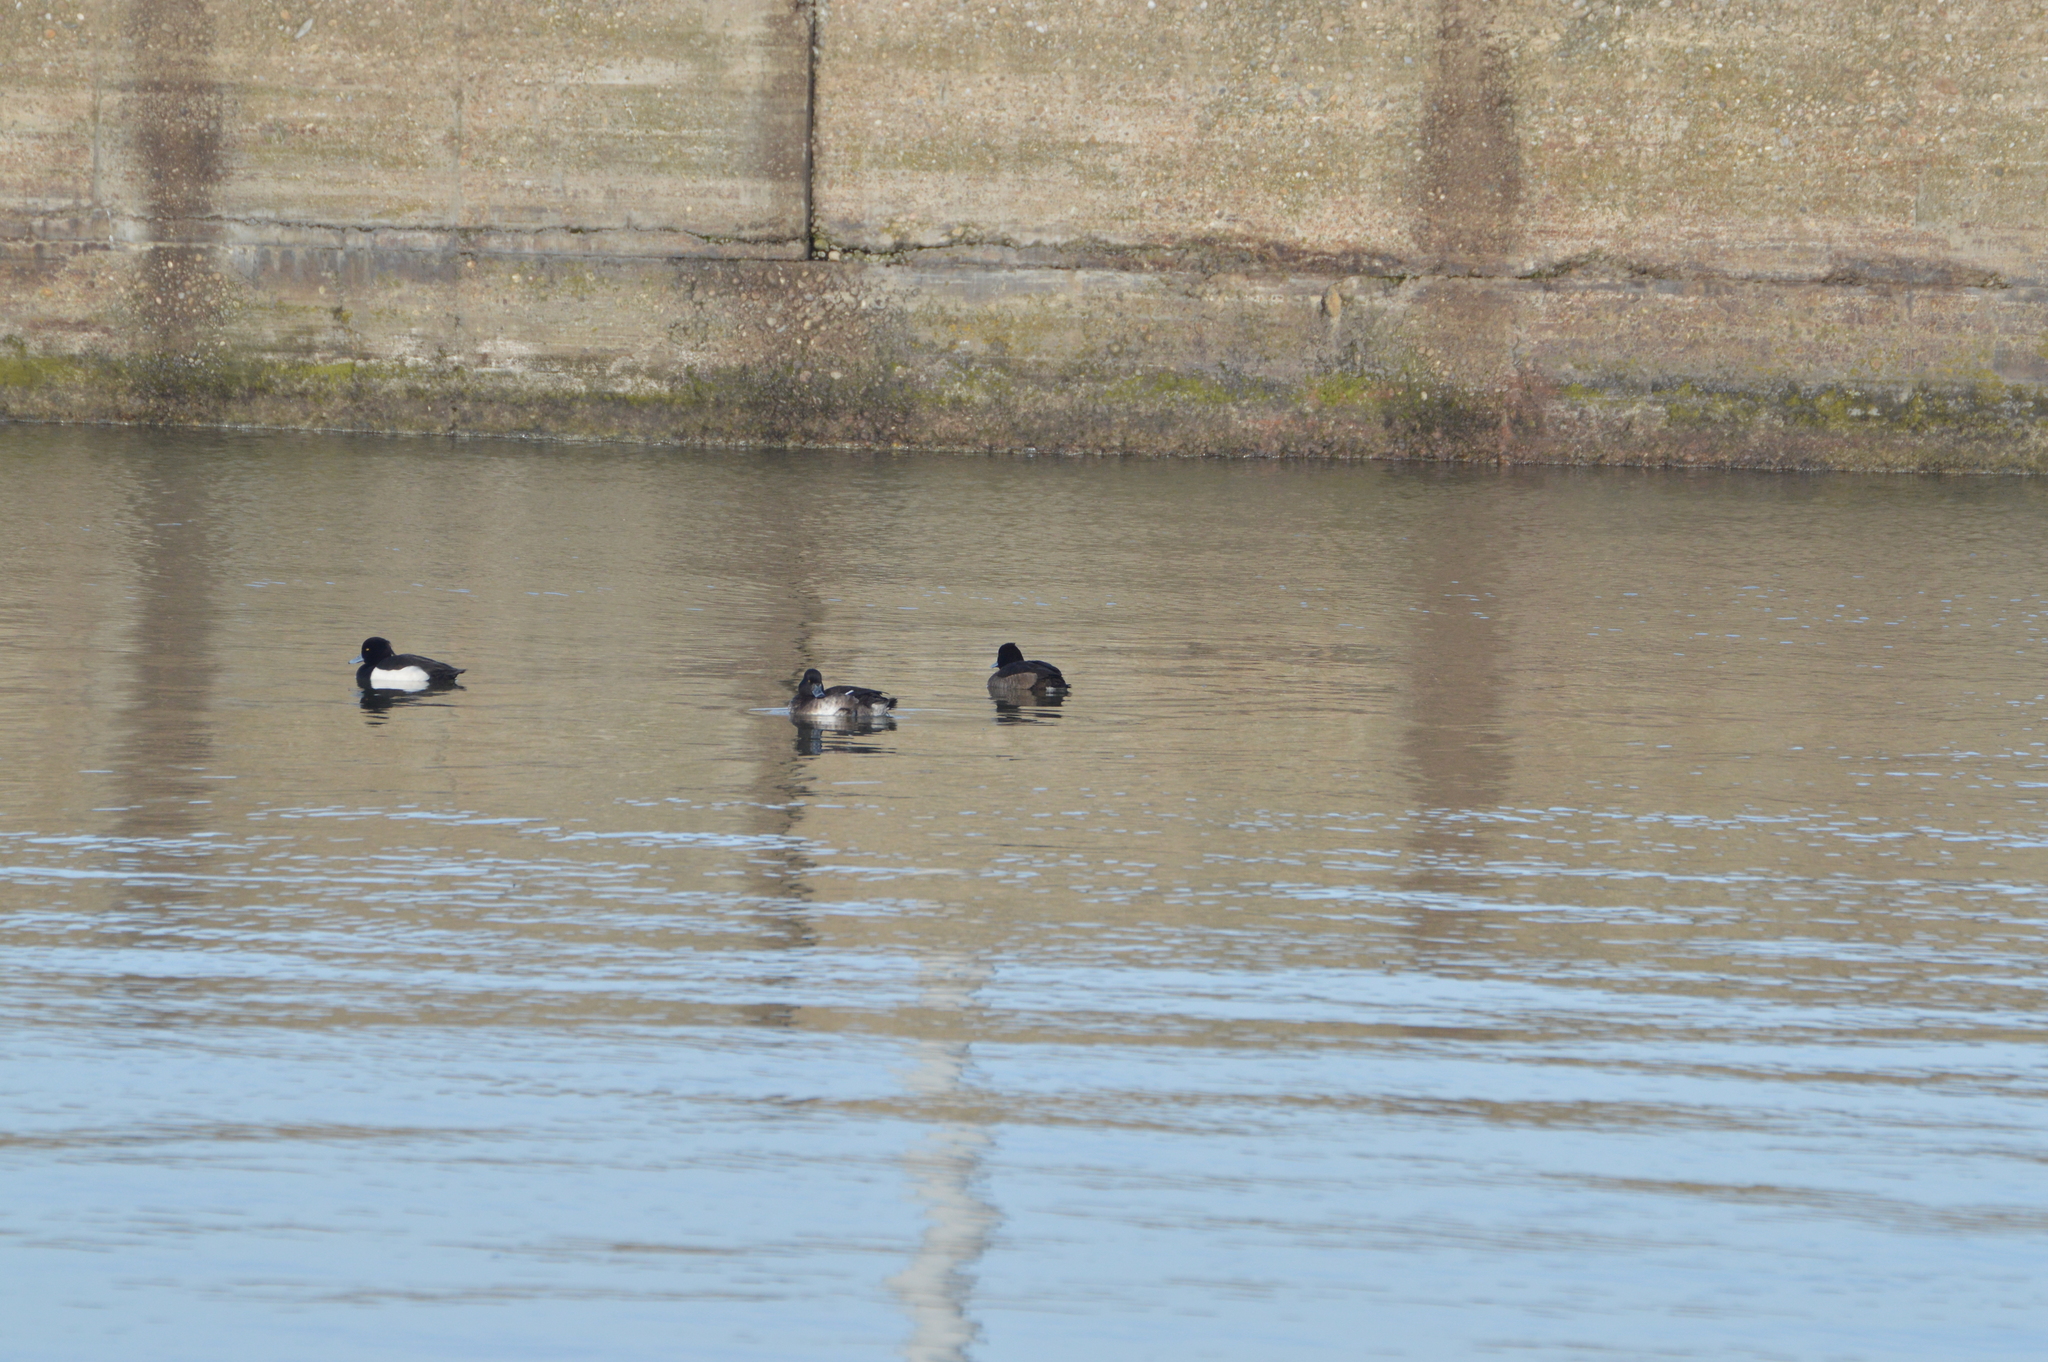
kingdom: Animalia
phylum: Chordata
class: Aves
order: Anseriformes
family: Anatidae
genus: Aythya
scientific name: Aythya fuligula
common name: Tufted duck
